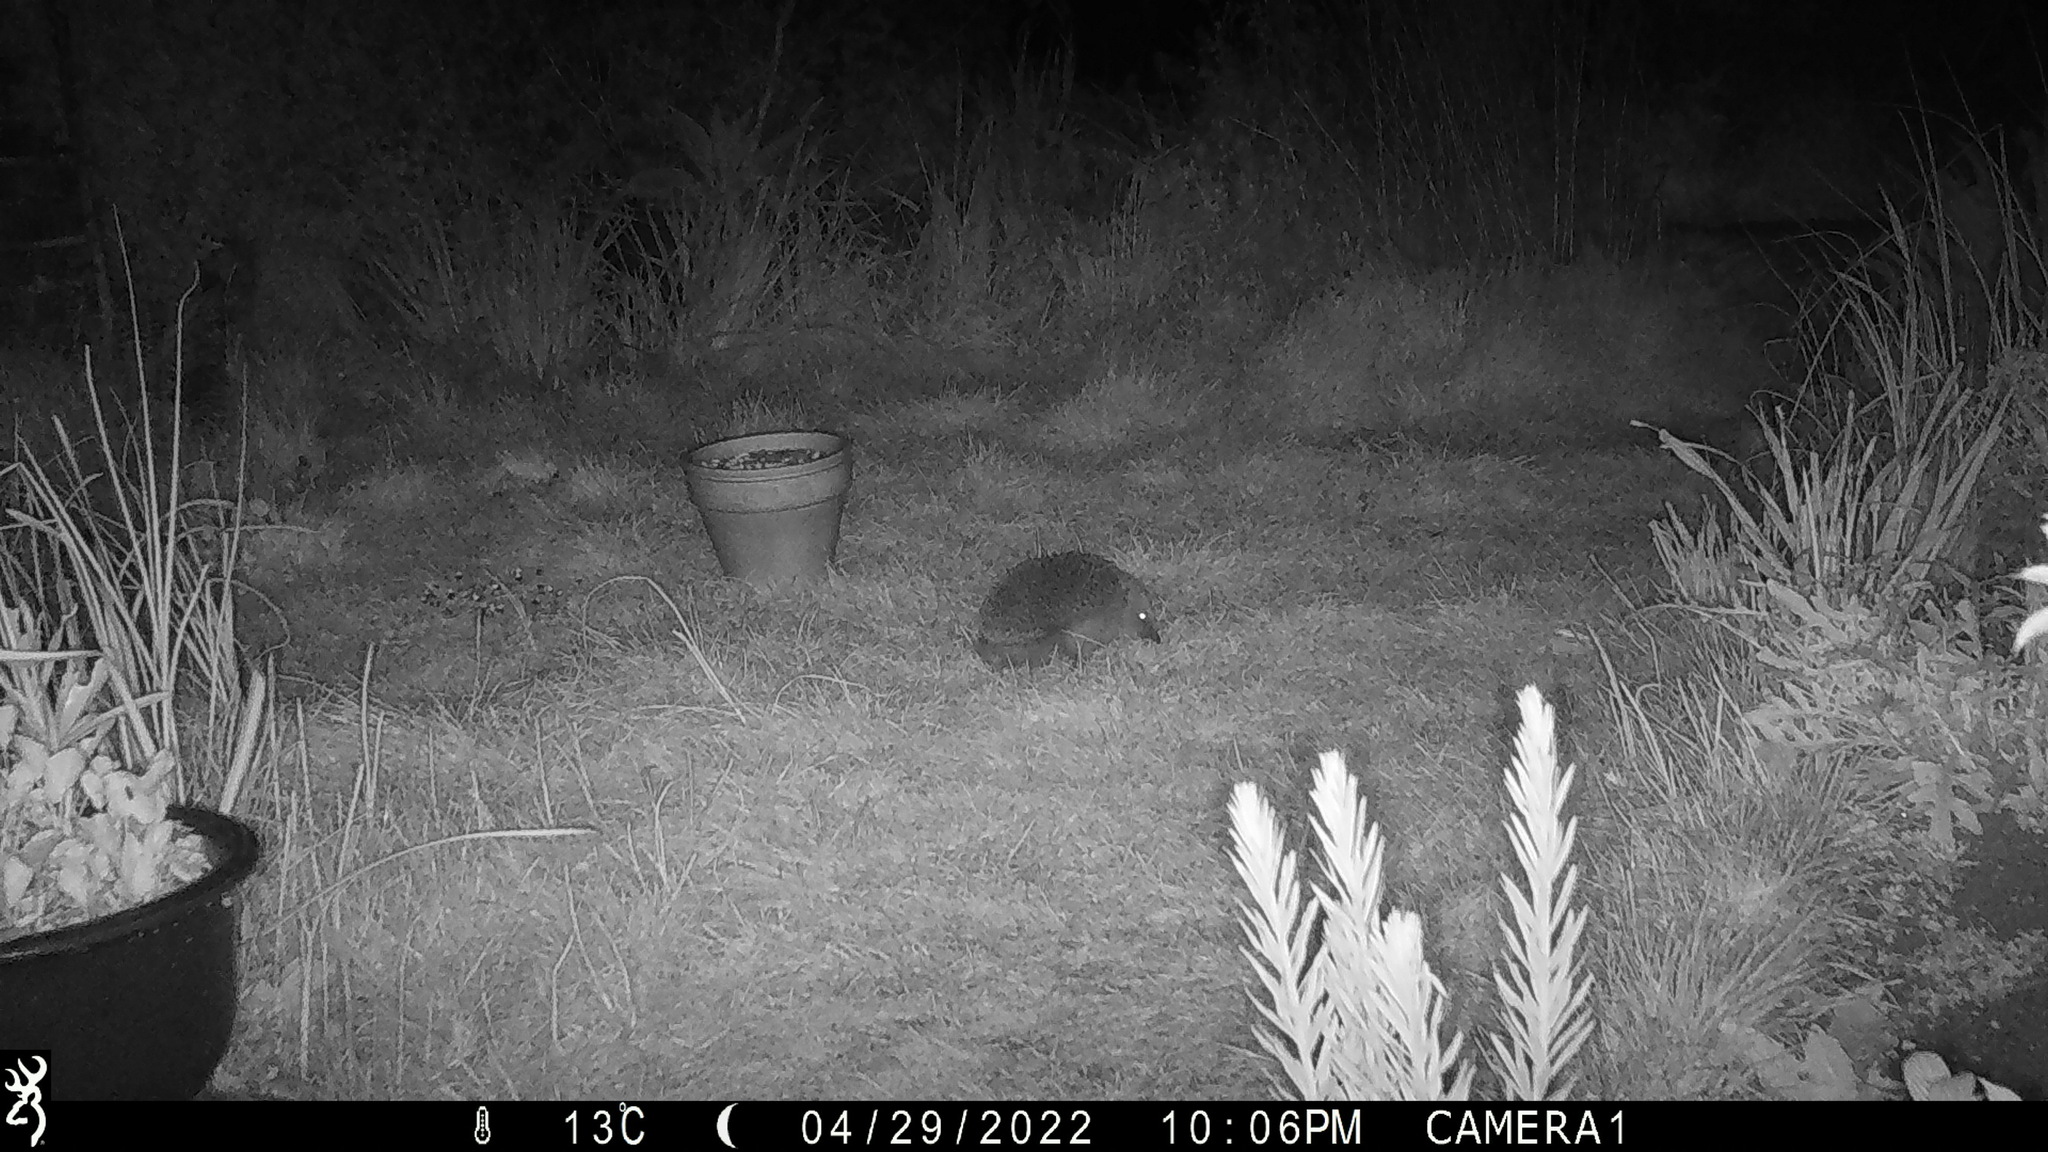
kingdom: Animalia
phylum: Chordata
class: Mammalia
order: Erinaceomorpha
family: Erinaceidae
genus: Erinaceus
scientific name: Erinaceus europaeus
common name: West european hedgehog
